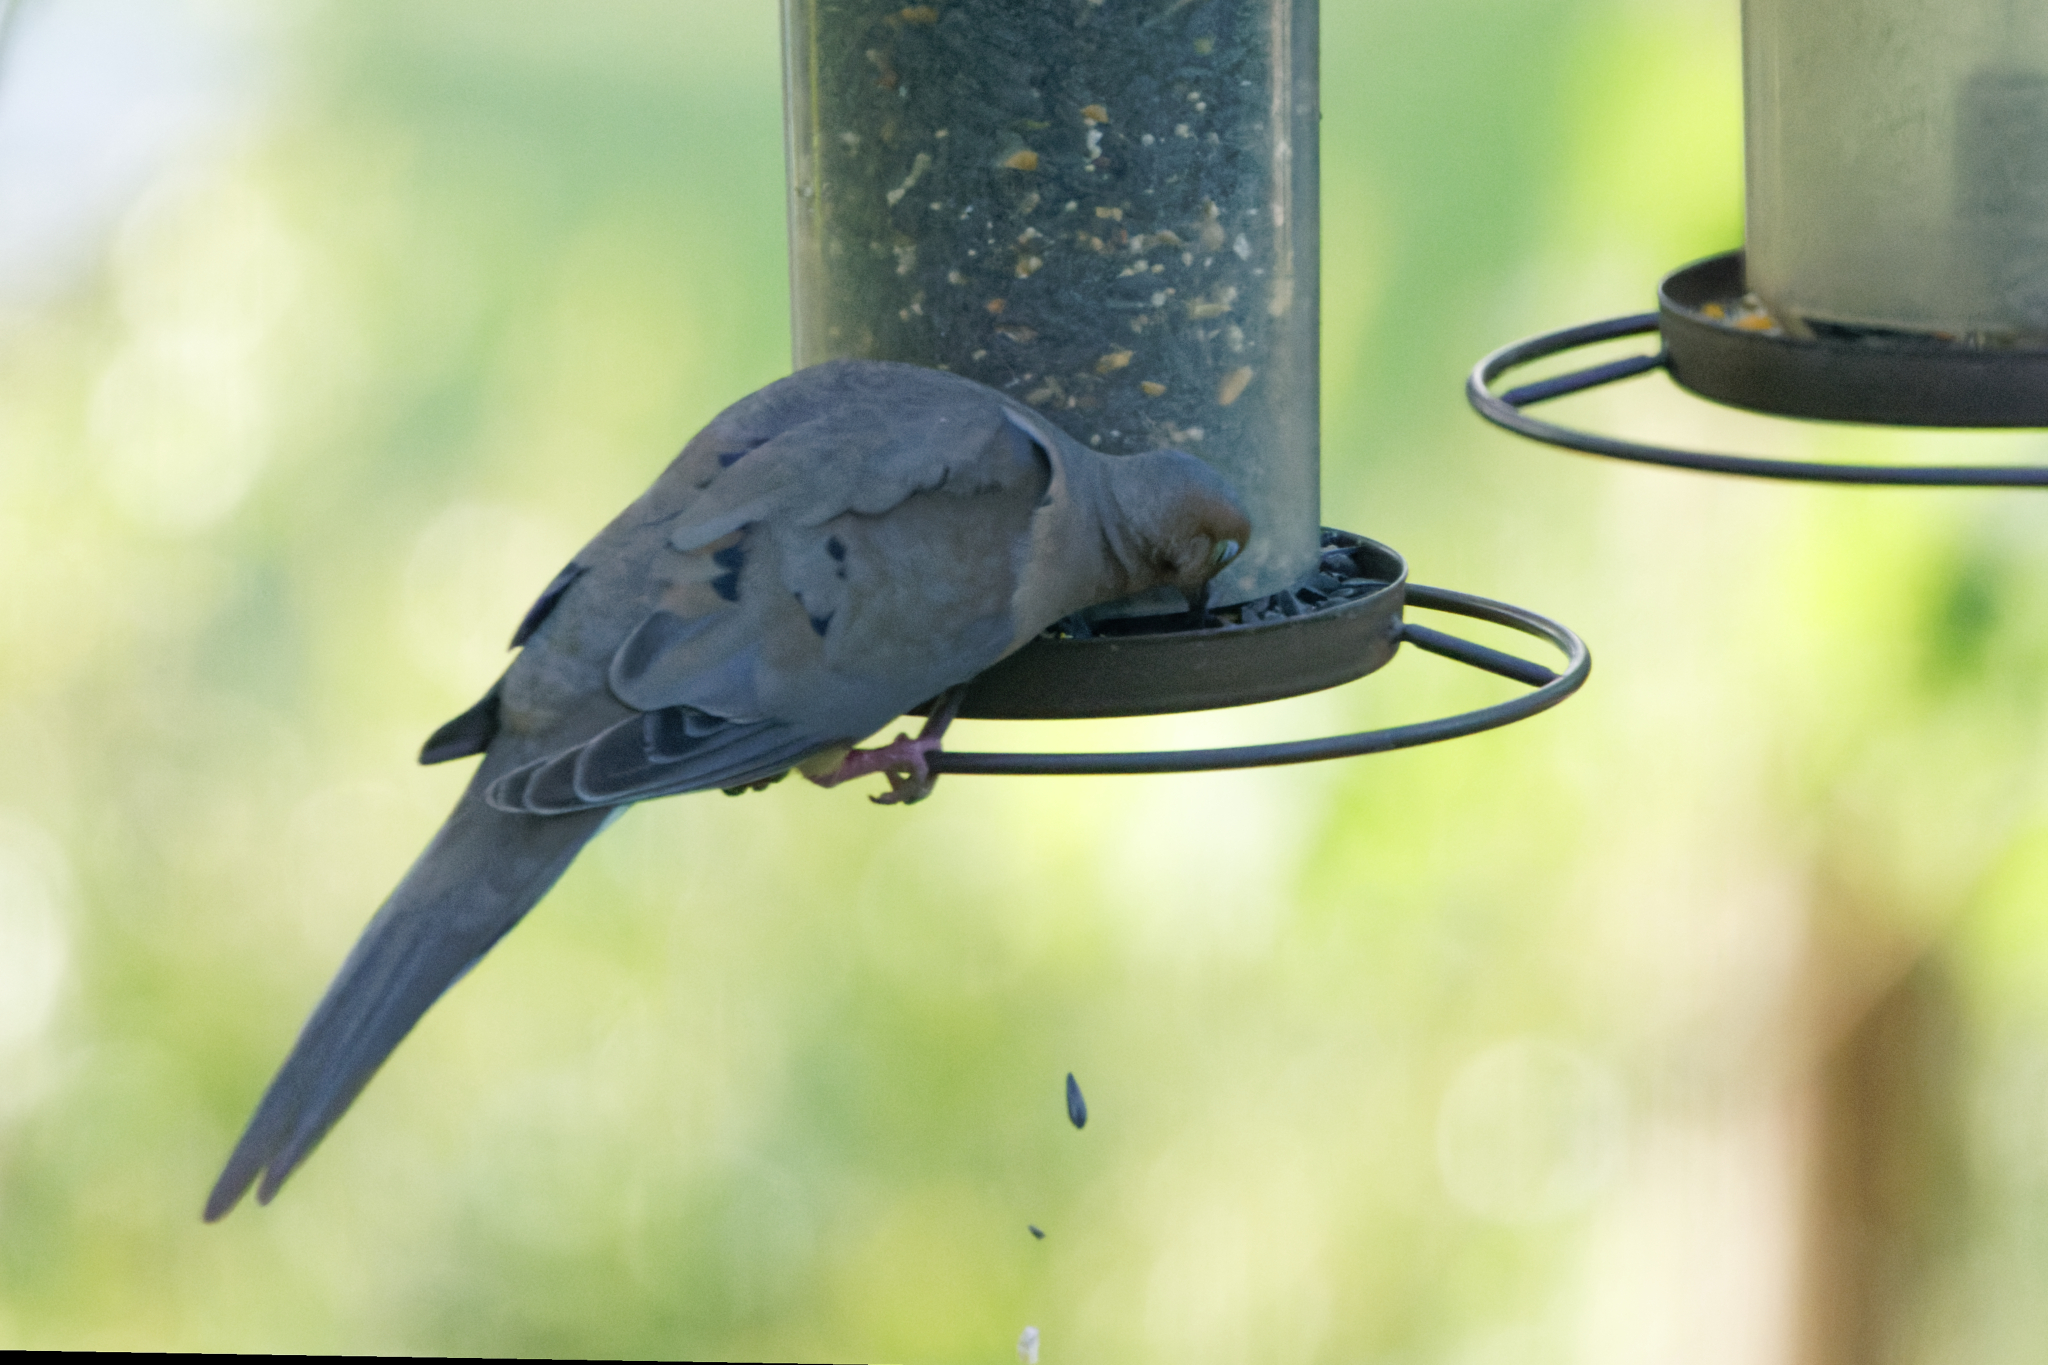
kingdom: Animalia
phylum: Chordata
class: Aves
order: Columbiformes
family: Columbidae
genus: Zenaida
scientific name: Zenaida macroura
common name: Mourning dove
